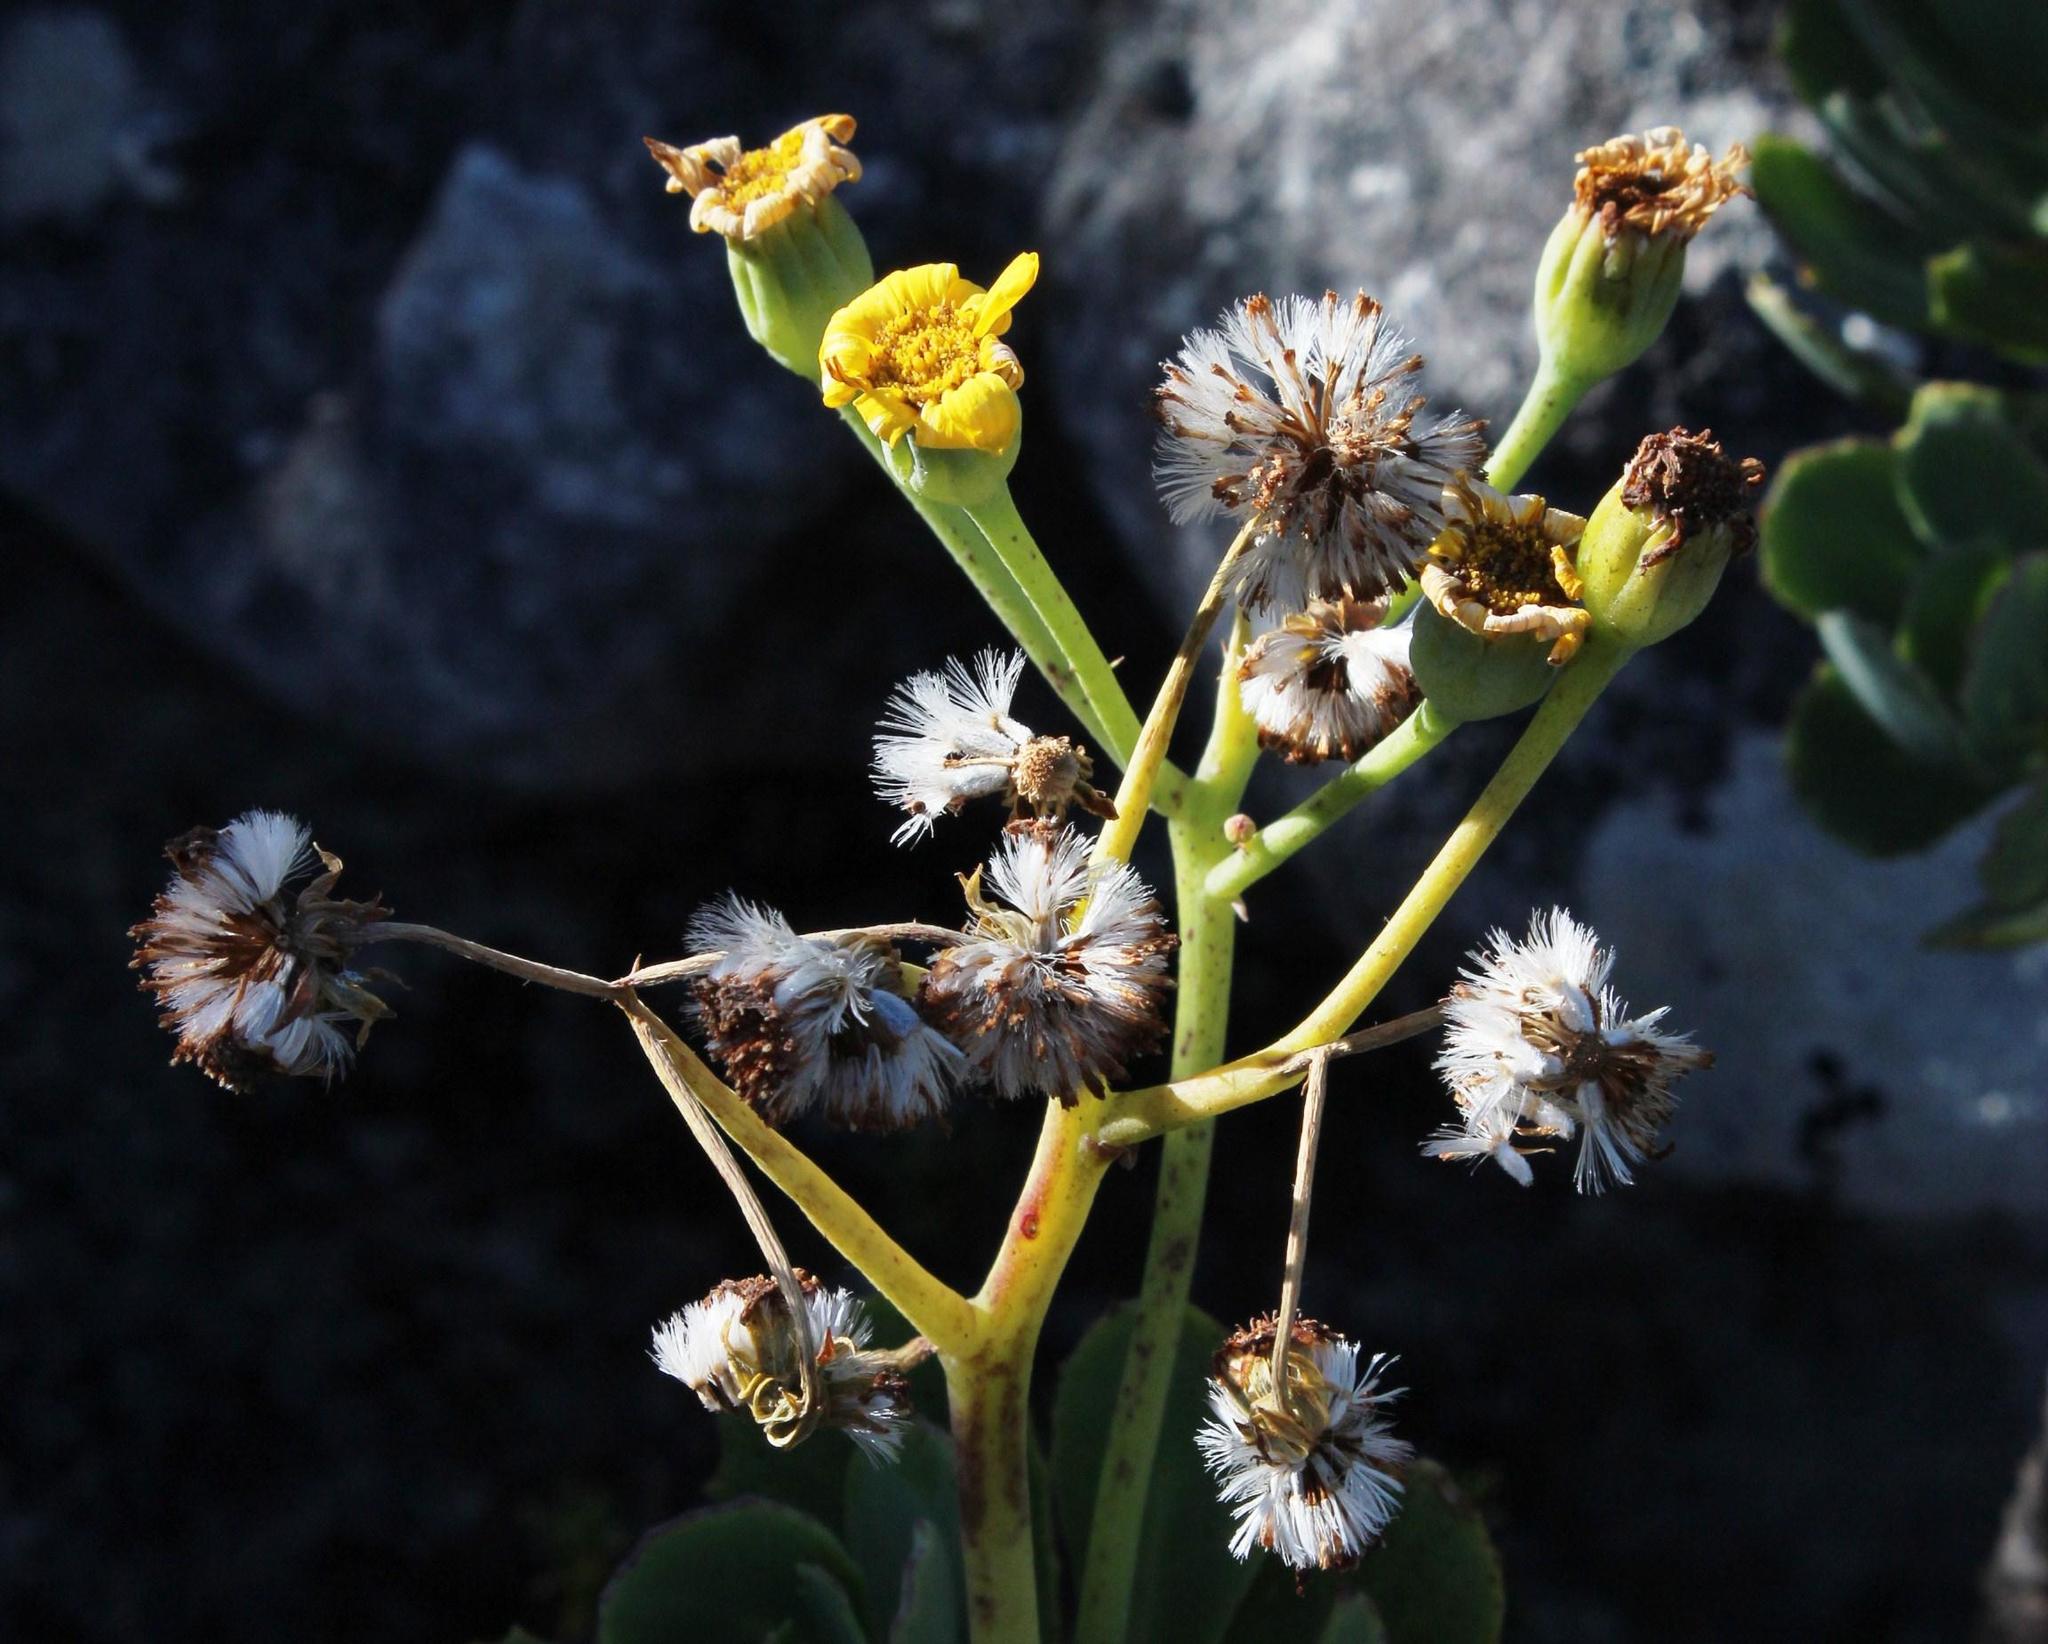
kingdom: Plantae
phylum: Tracheophyta
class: Magnoliopsida
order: Asterales
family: Asteraceae
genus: Othonna
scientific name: Othonna dentata
